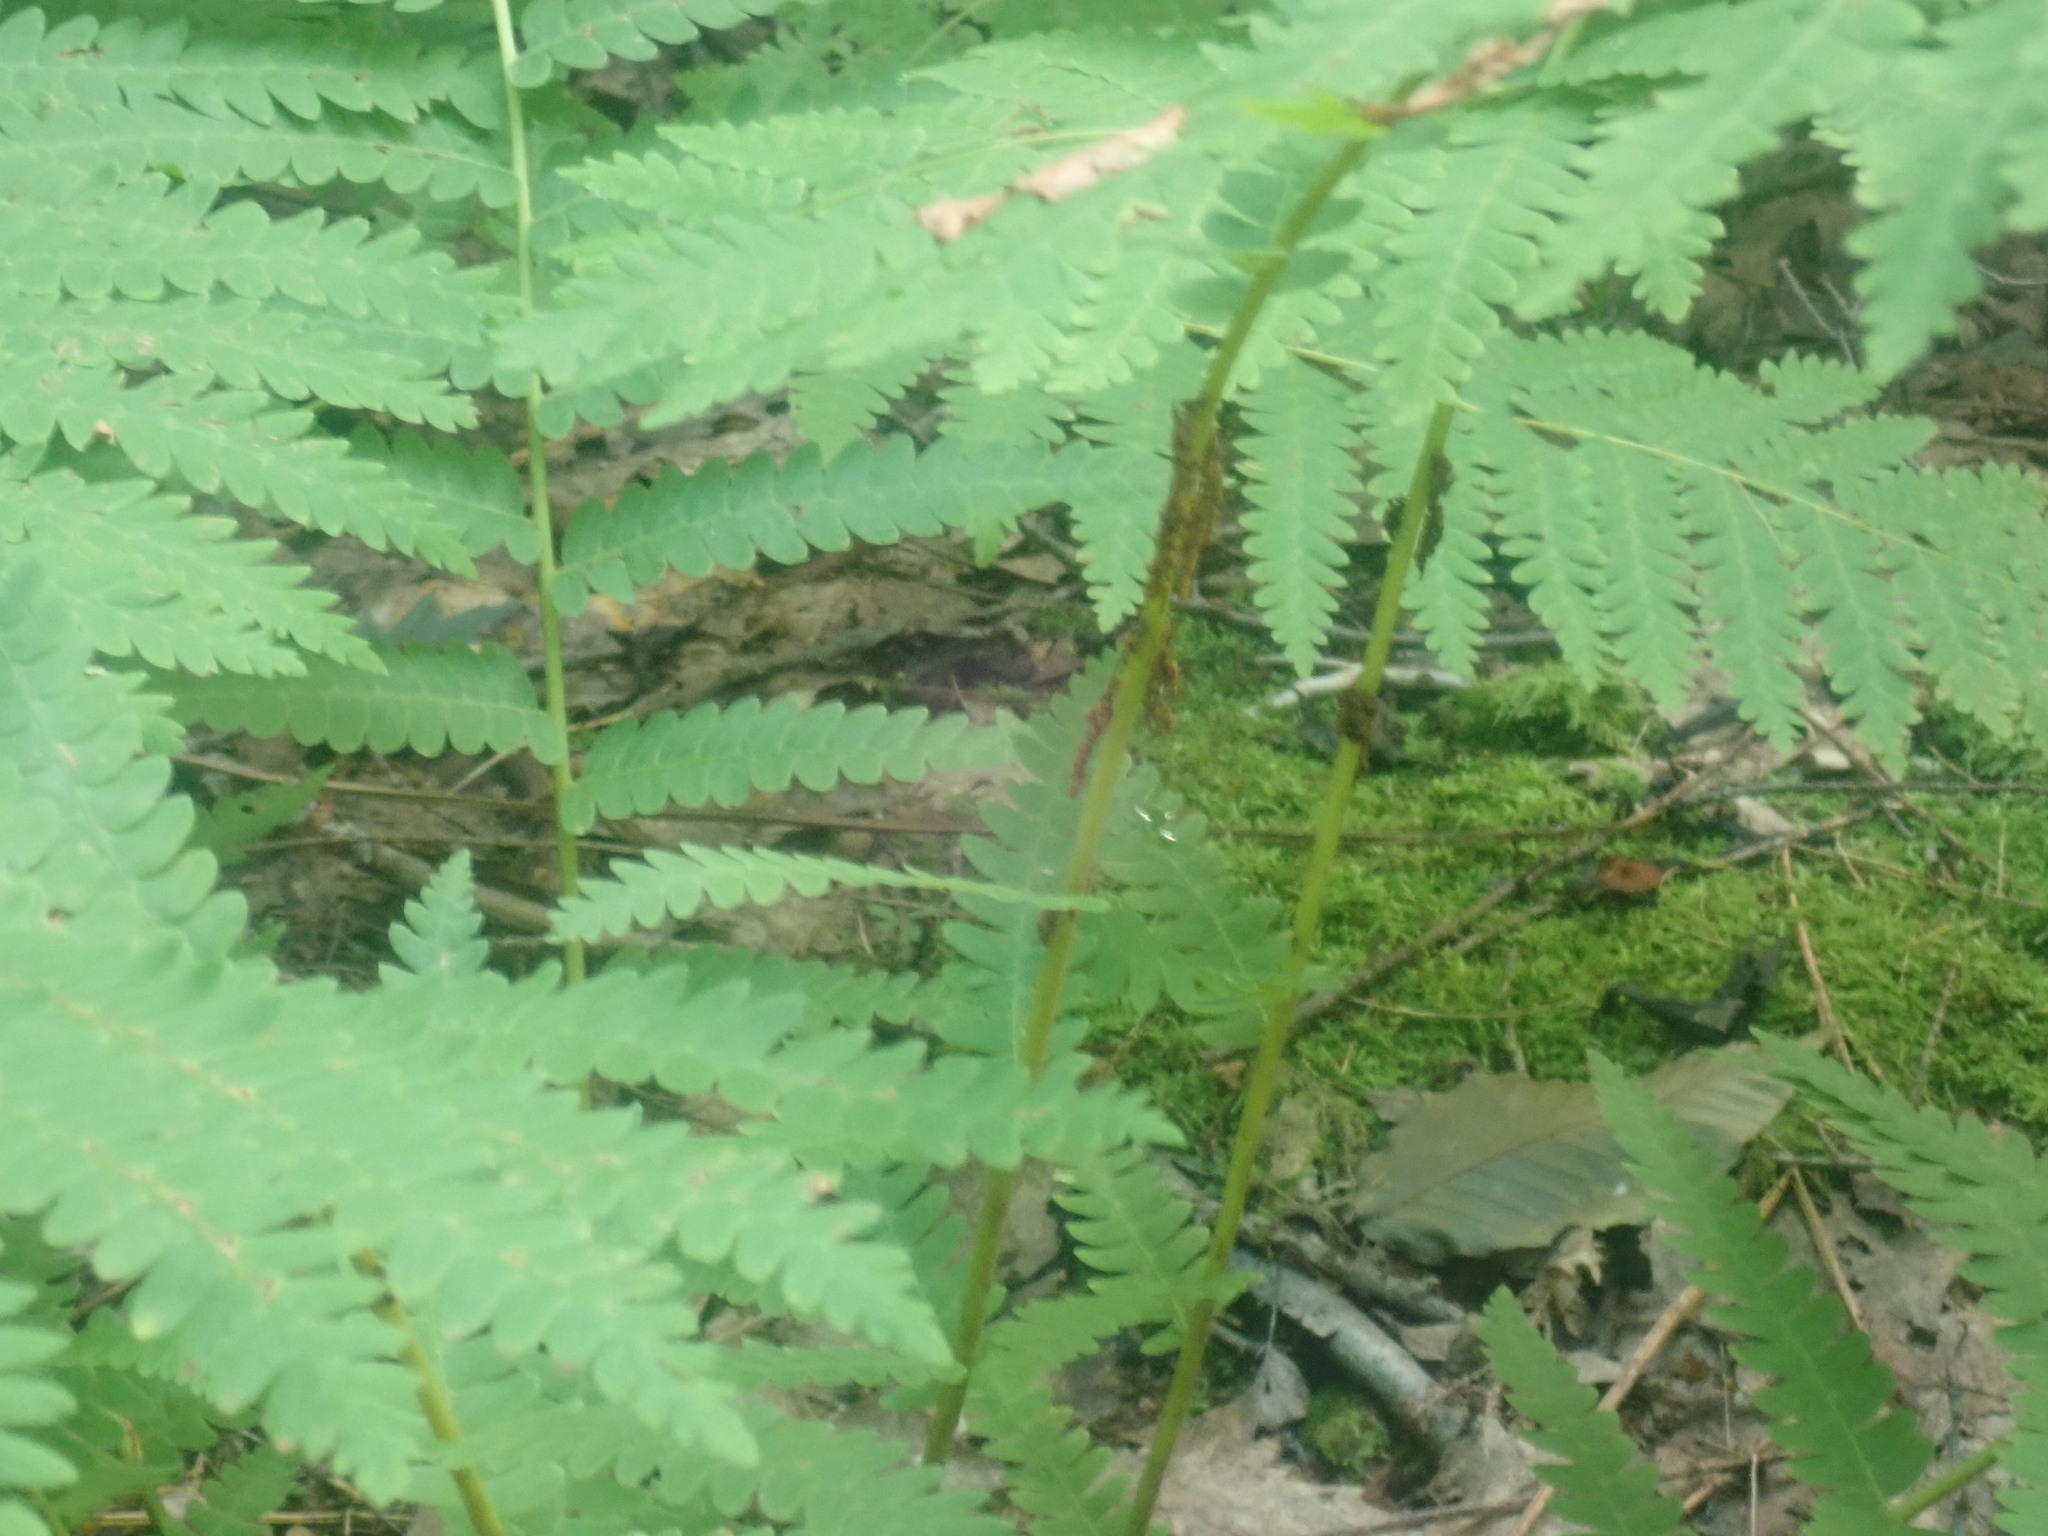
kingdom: Plantae
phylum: Tracheophyta
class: Polypodiopsida
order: Osmundales
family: Osmundaceae
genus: Claytosmunda
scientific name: Claytosmunda claytoniana
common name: Clayton's fern
